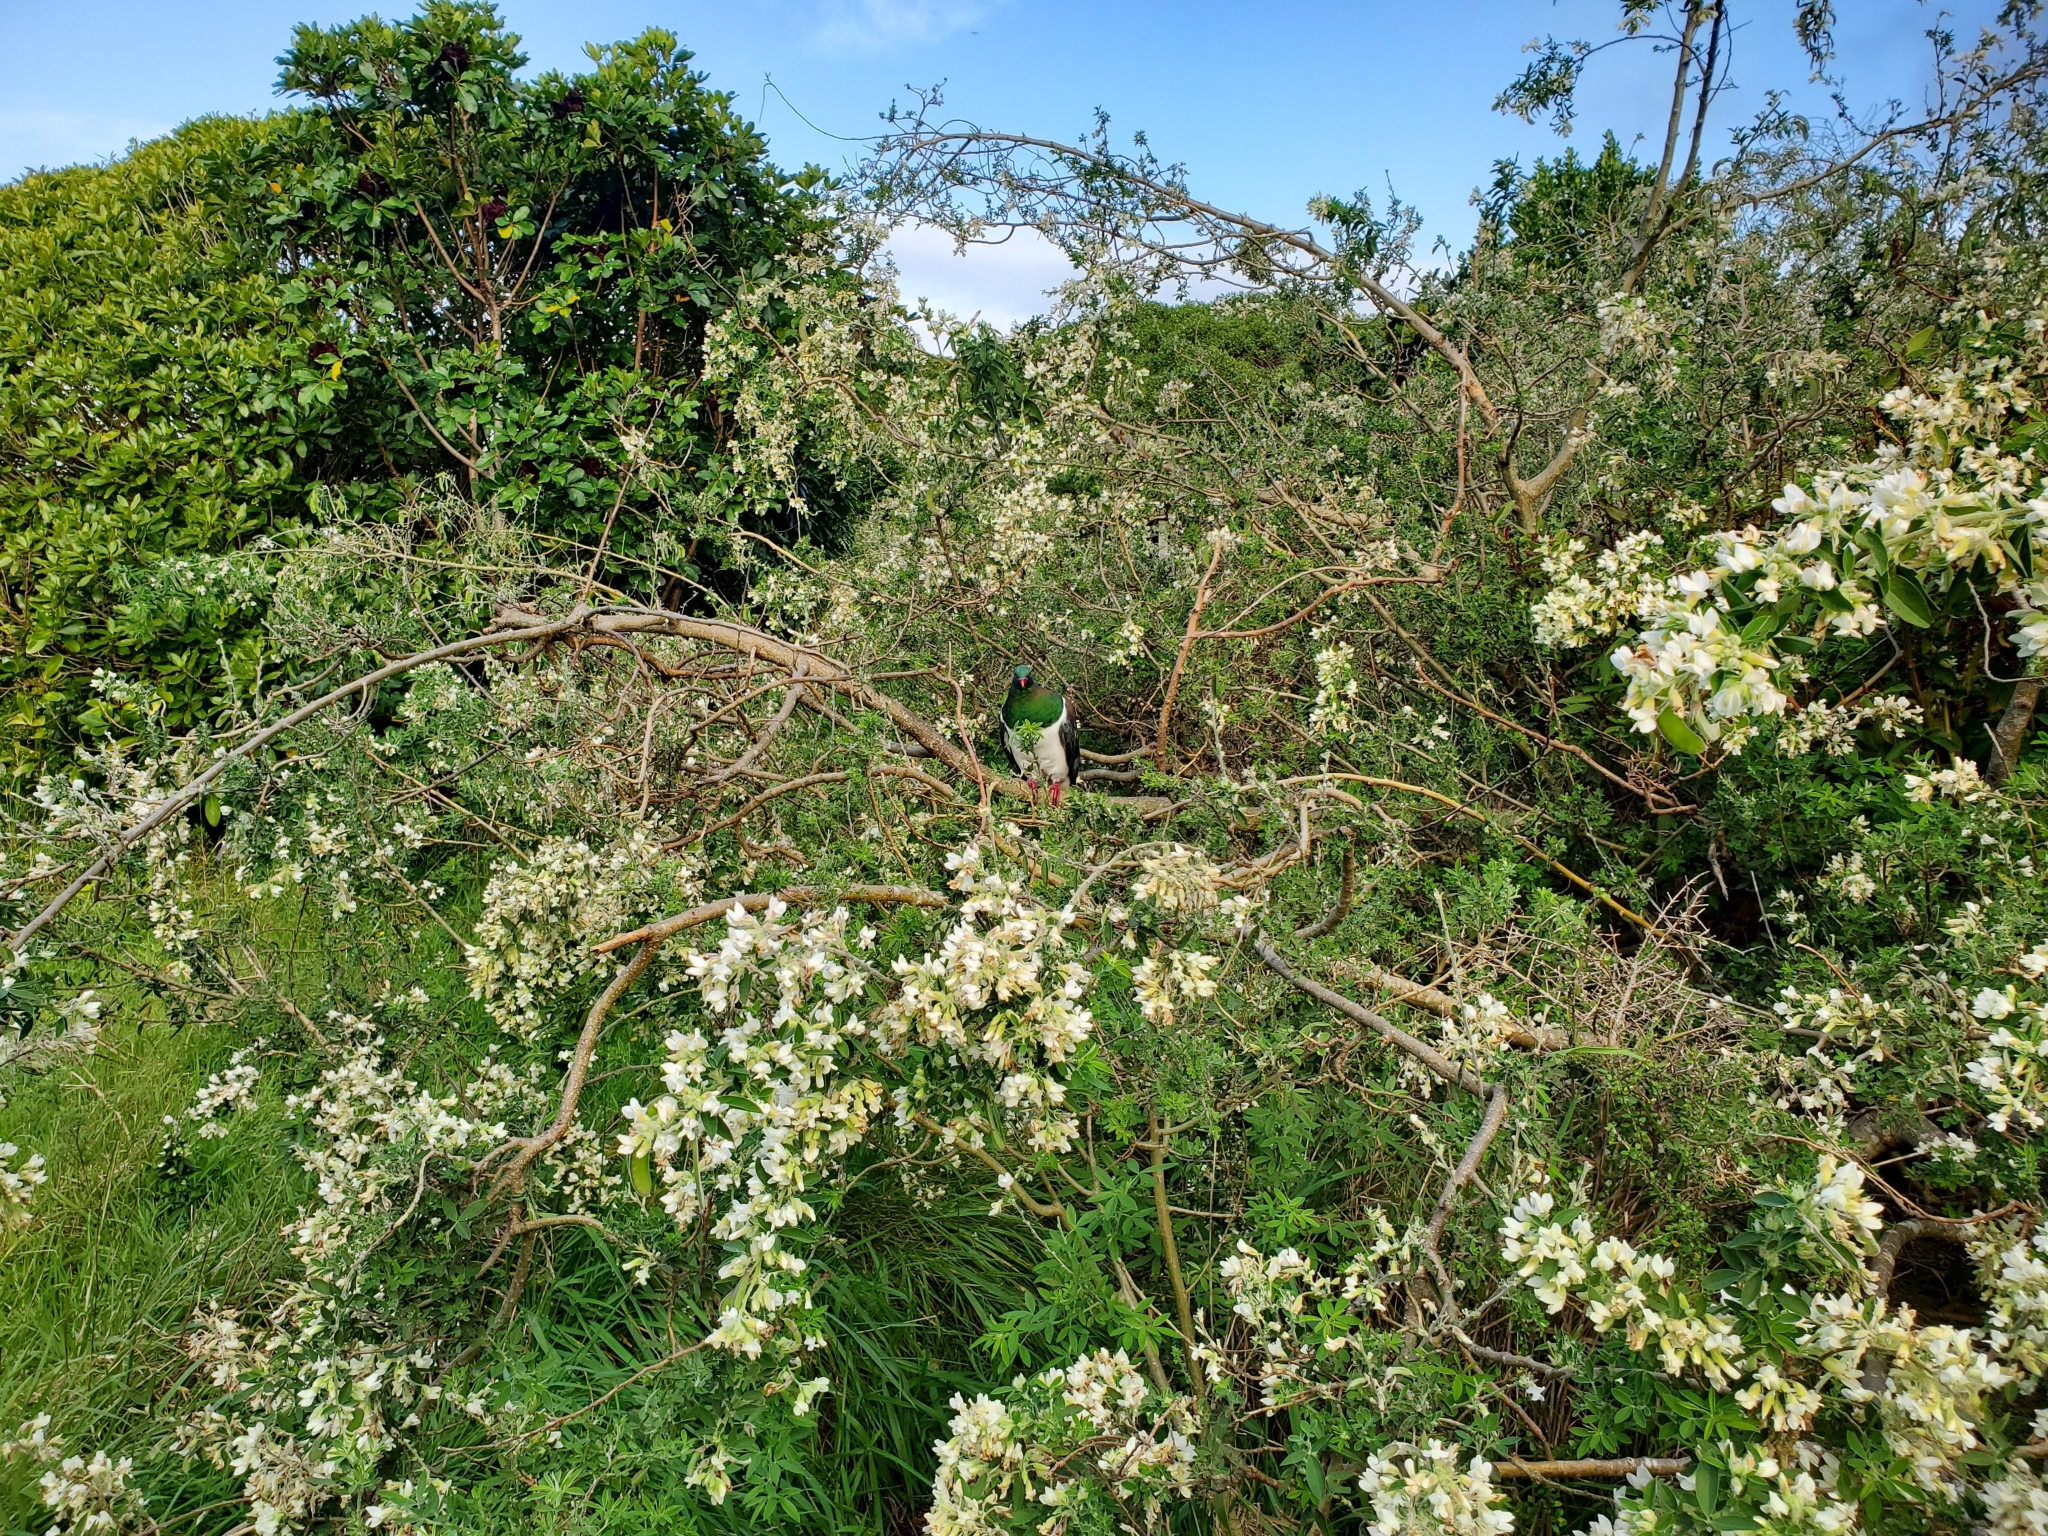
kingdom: Animalia
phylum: Chordata
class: Aves
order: Columbiformes
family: Columbidae
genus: Hemiphaga
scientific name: Hemiphaga novaeseelandiae
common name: New zealand pigeon
